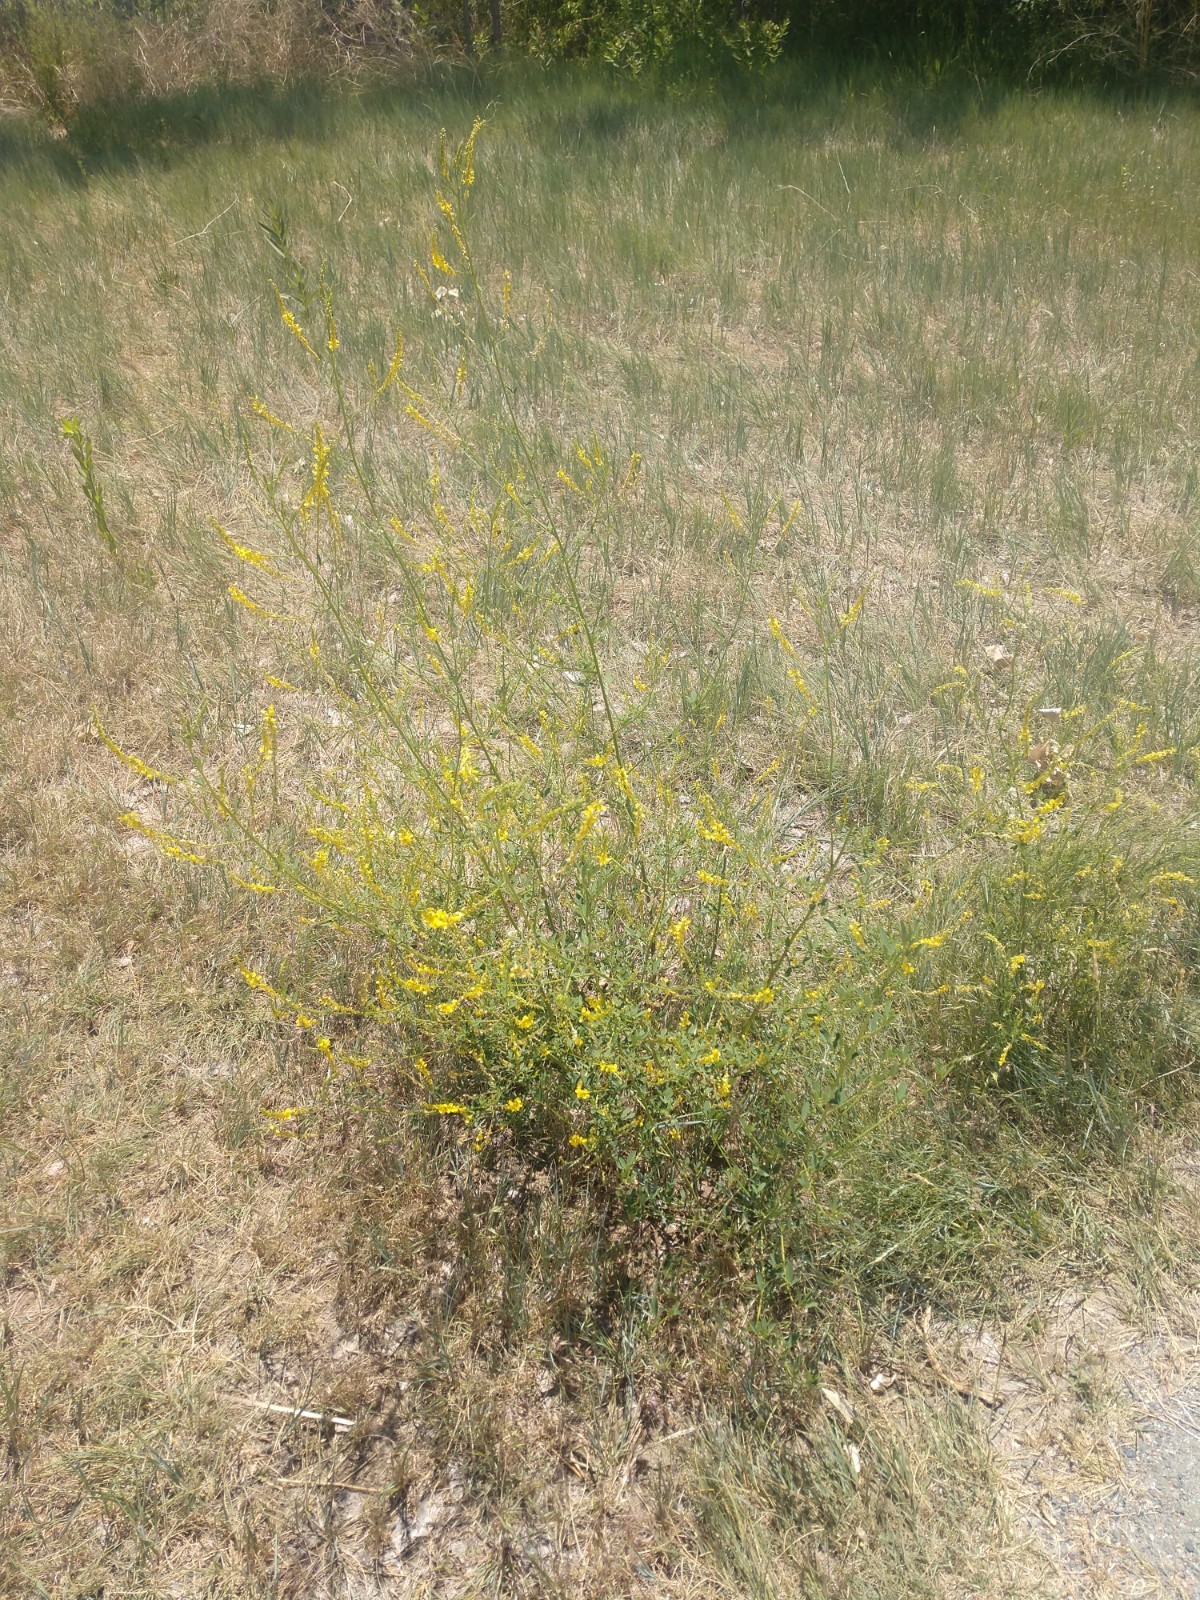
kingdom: Plantae
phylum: Tracheophyta
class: Magnoliopsida
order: Fabales
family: Fabaceae
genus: Melilotus
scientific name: Melilotus officinalis
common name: Sweetclover
